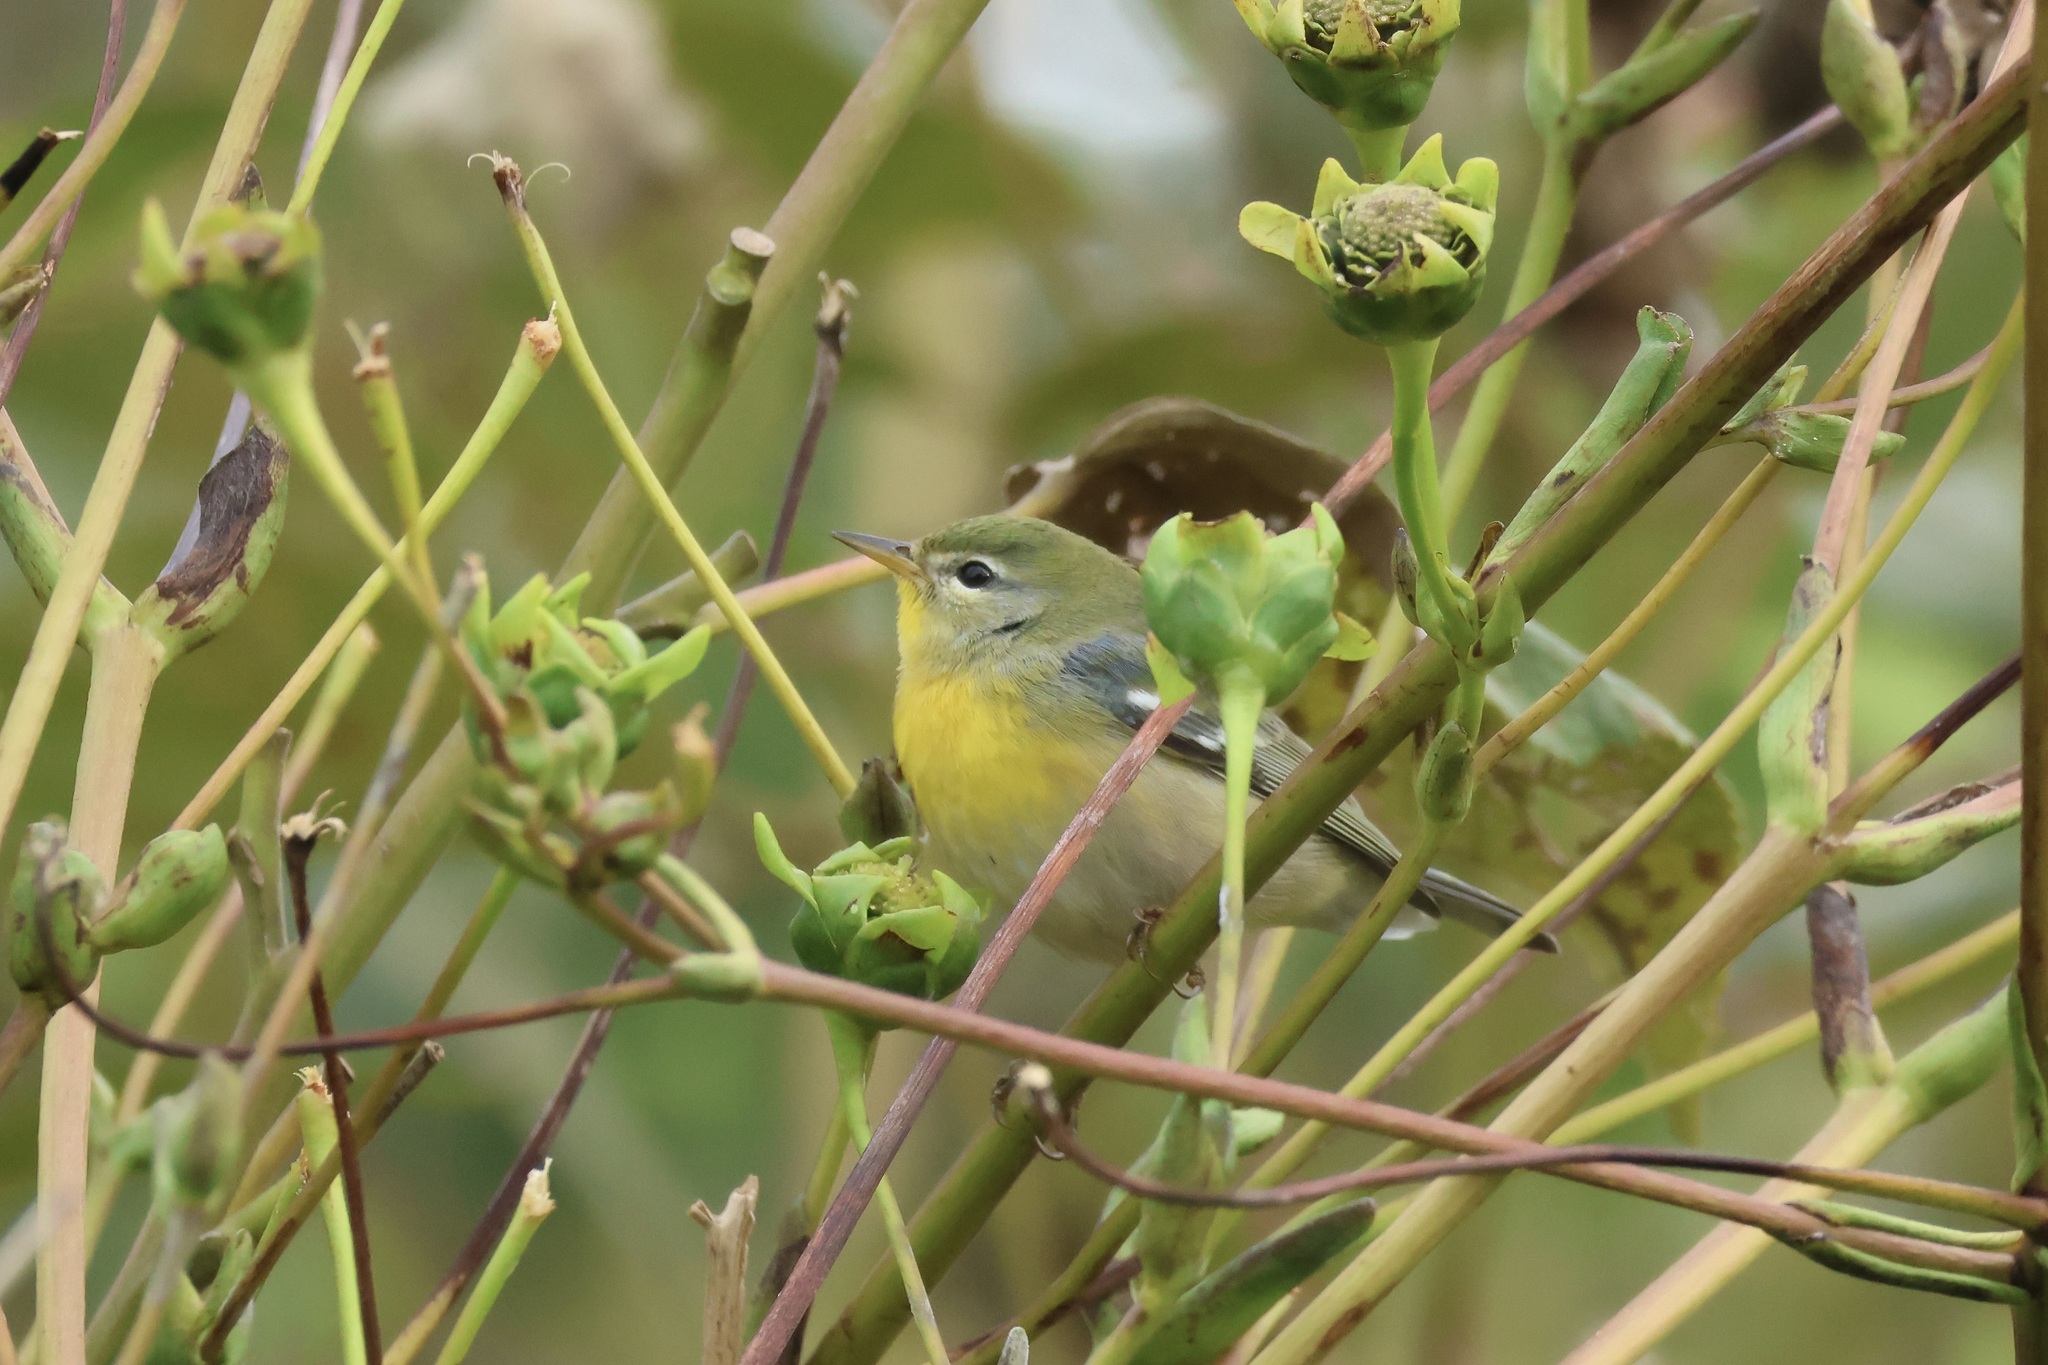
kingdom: Animalia
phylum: Chordata
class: Aves
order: Passeriformes
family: Parulidae
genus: Setophaga
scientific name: Setophaga americana
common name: Northern parula
